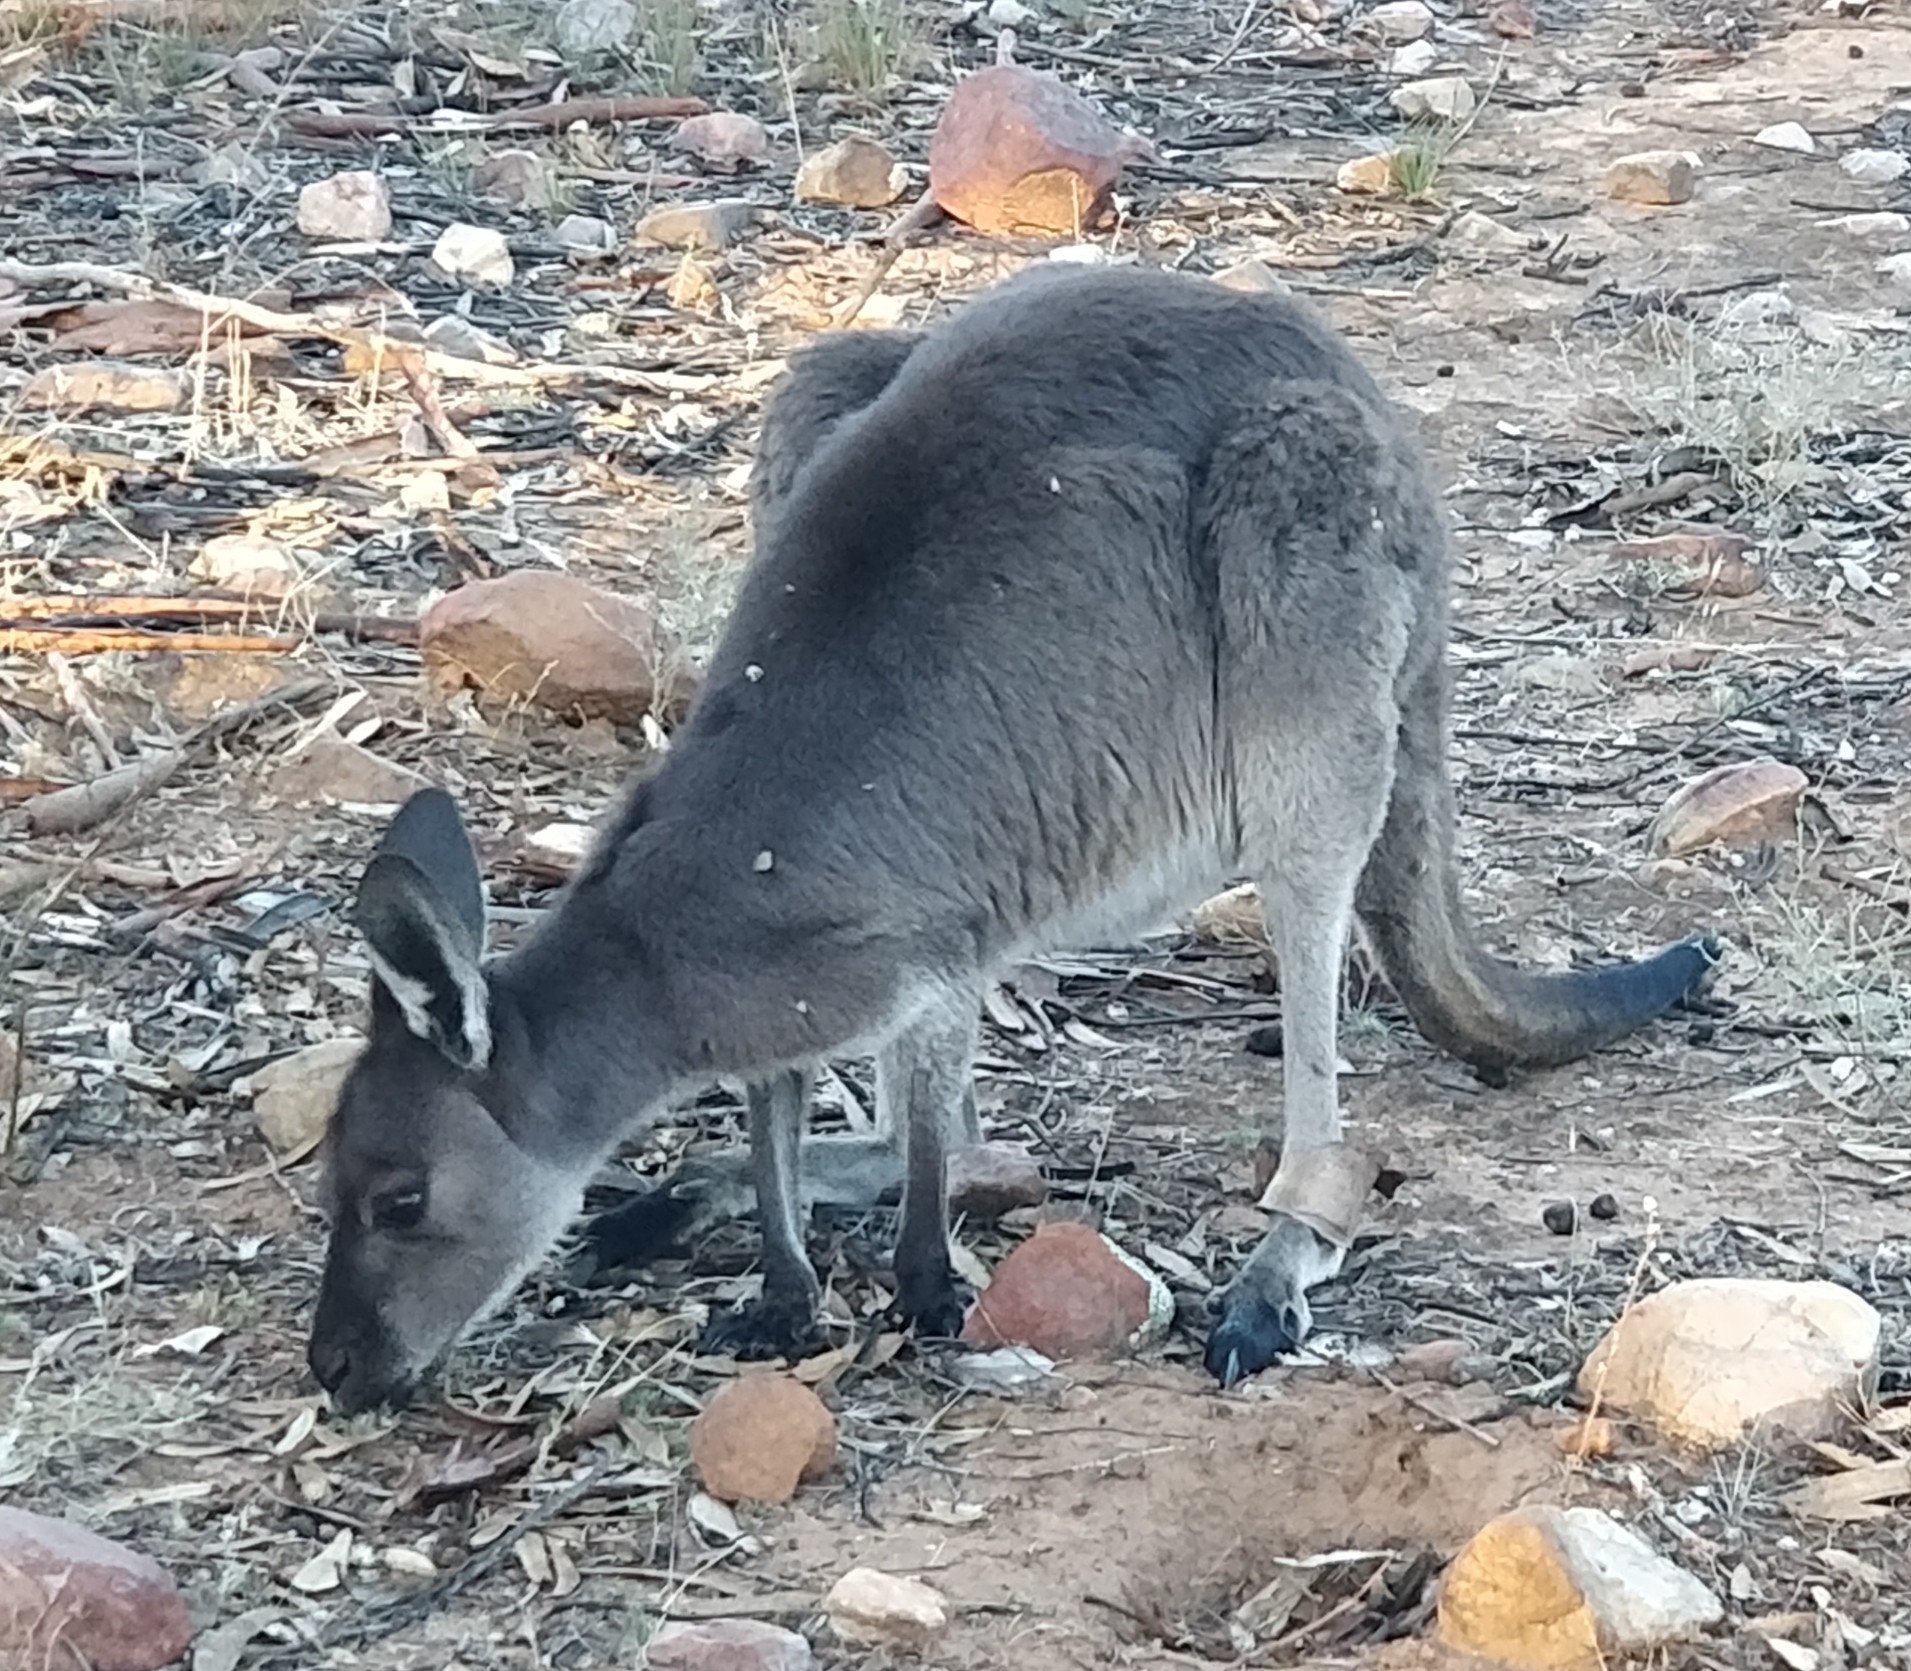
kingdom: Animalia
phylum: Chordata
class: Mammalia
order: Diprotodontia
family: Macropodidae
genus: Macropus
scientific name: Macropus fuliginosus
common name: Western grey kangaroo
